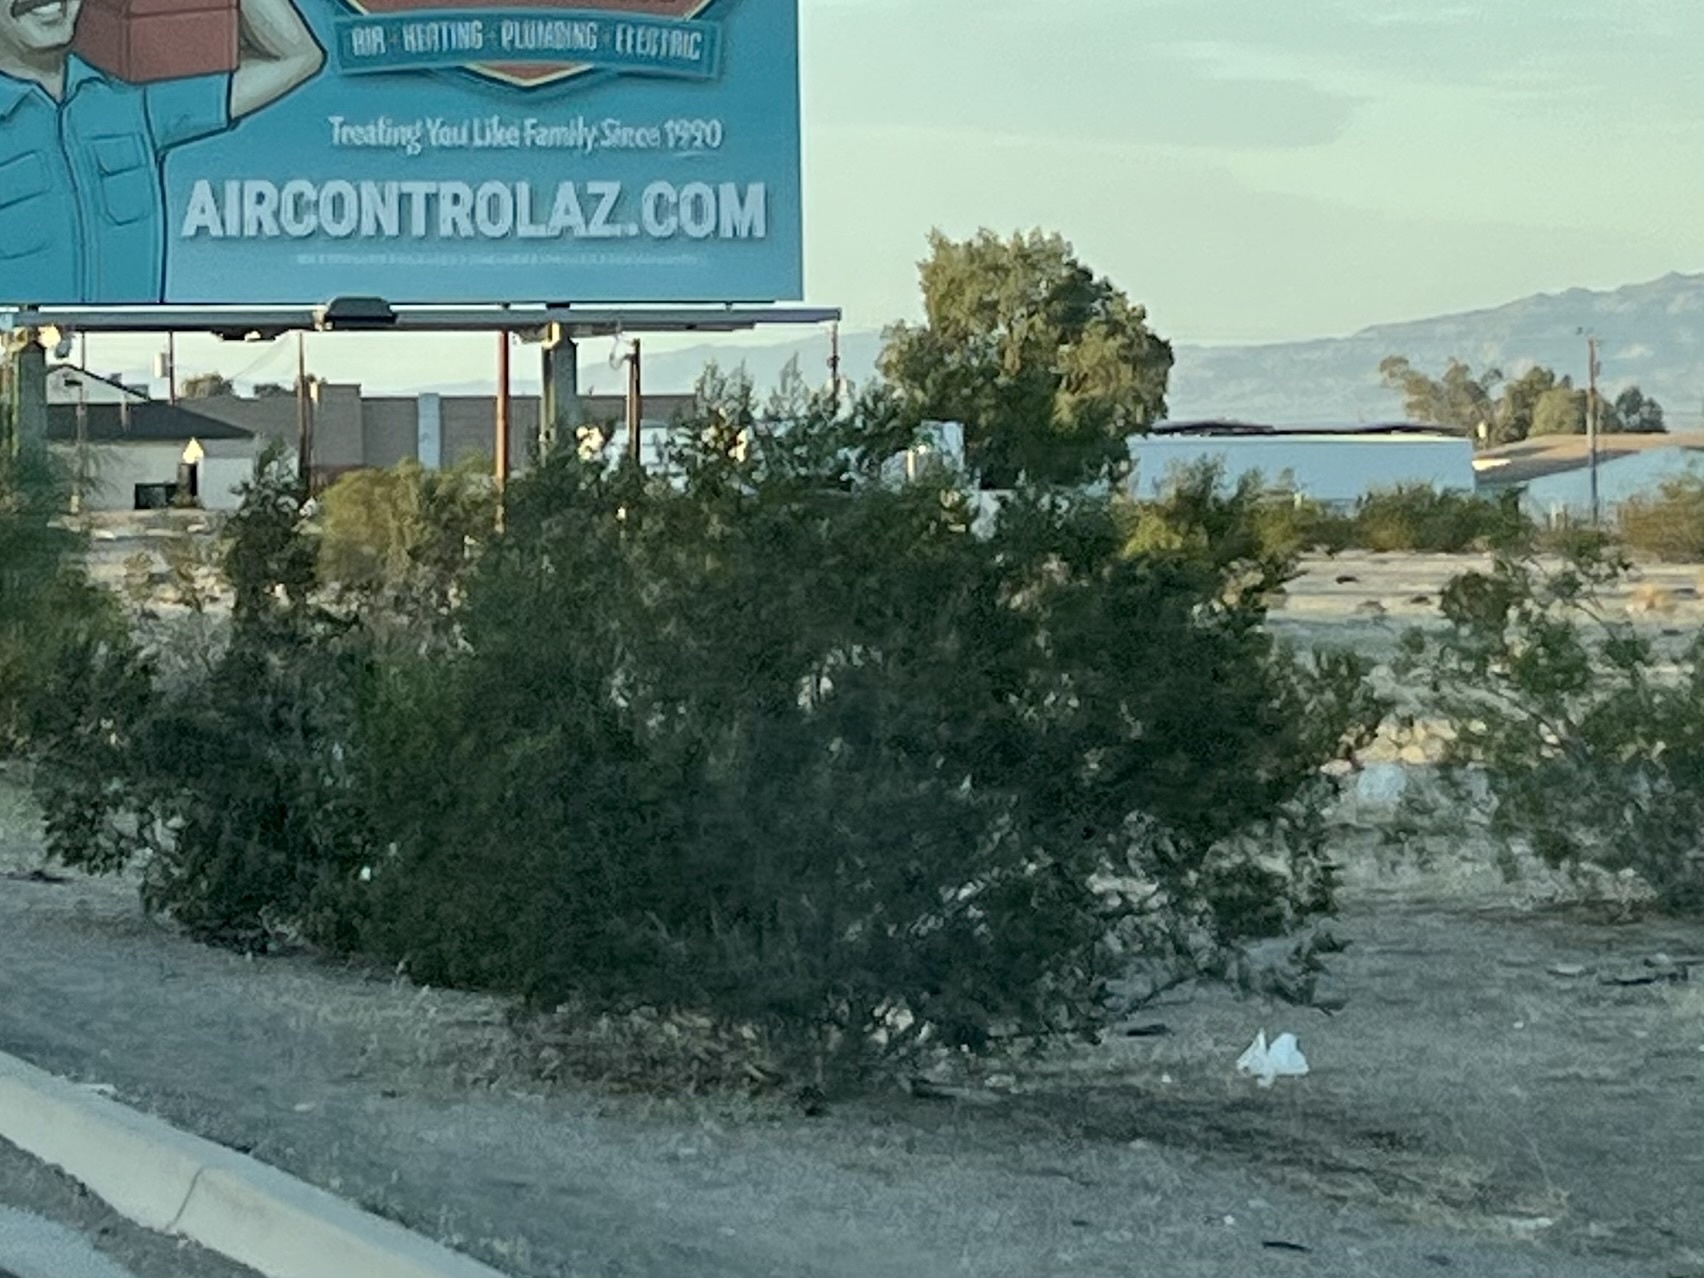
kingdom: Plantae
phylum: Tracheophyta
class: Magnoliopsida
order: Zygophyllales
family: Zygophyllaceae
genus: Larrea
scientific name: Larrea tridentata
